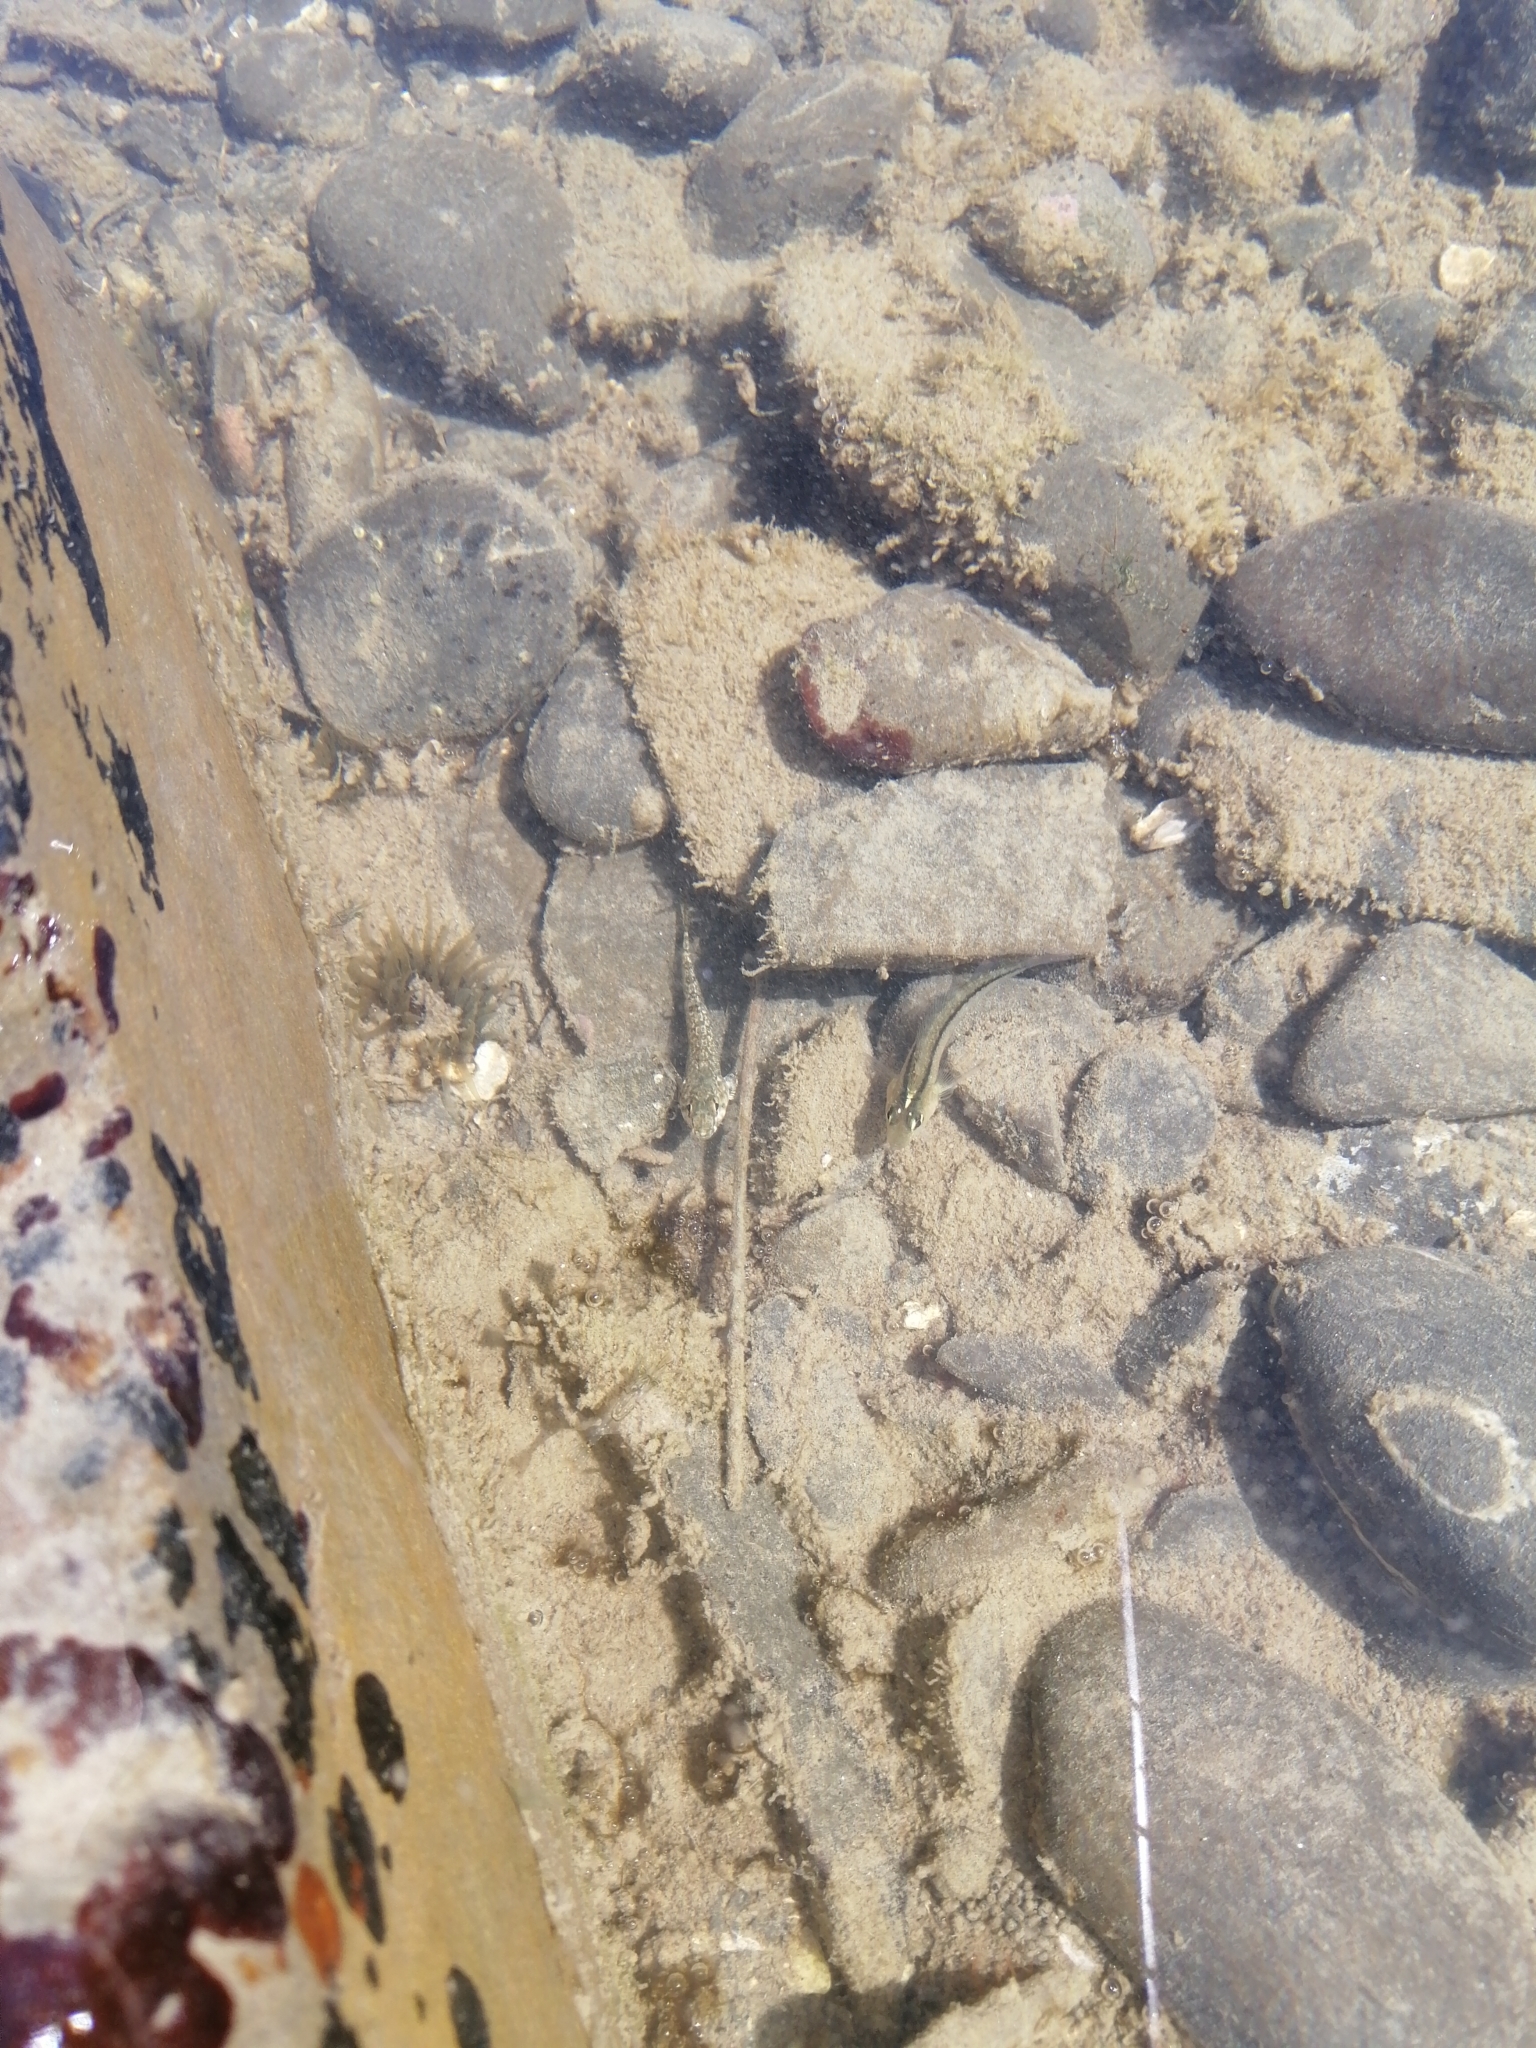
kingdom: Animalia
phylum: Chordata
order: Perciformes
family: Tripterygiidae
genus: Bellapiscis
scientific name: Bellapiscis medius
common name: Twister
